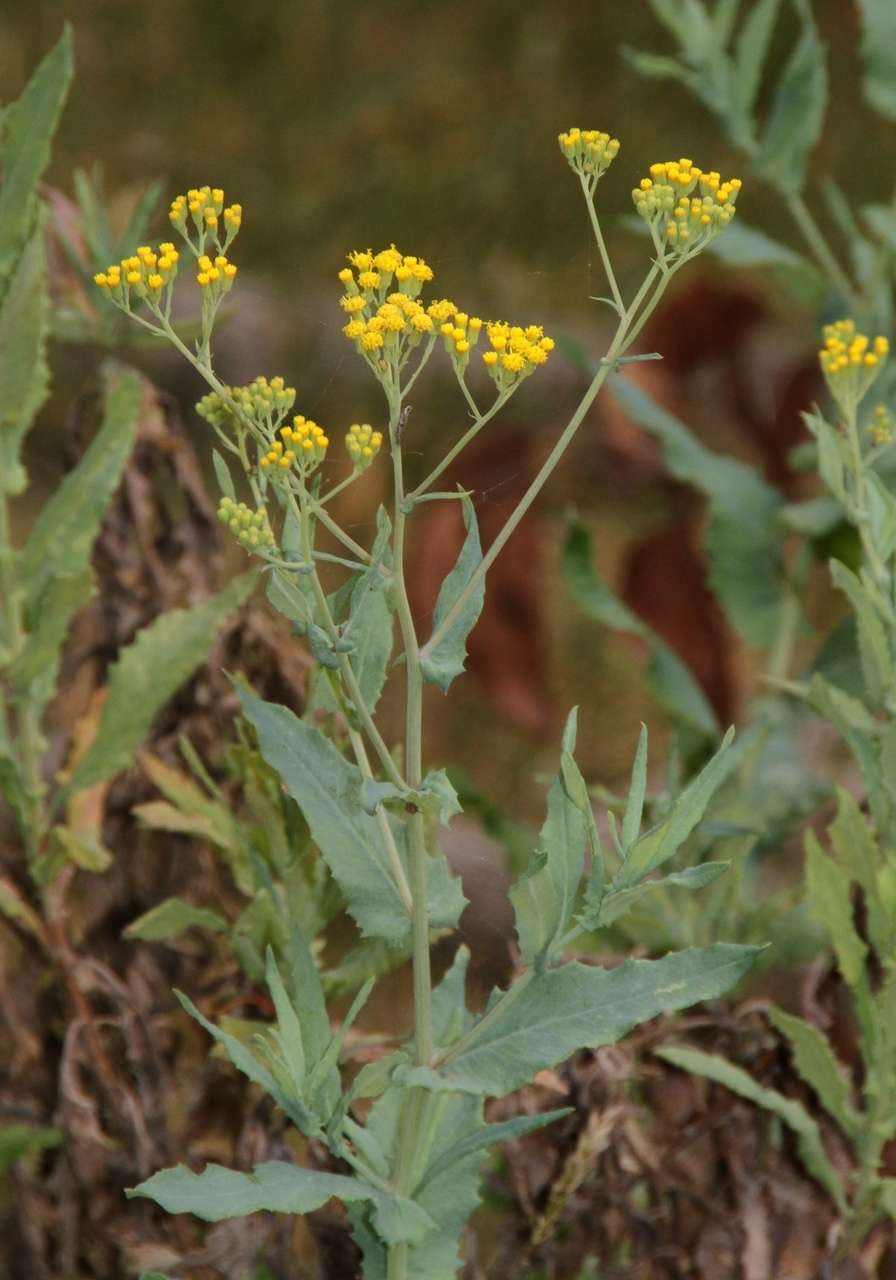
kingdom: Plantae
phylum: Tracheophyta
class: Magnoliopsida
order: Asterales
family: Asteraceae
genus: Senecio
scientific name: Senecio odoratus
